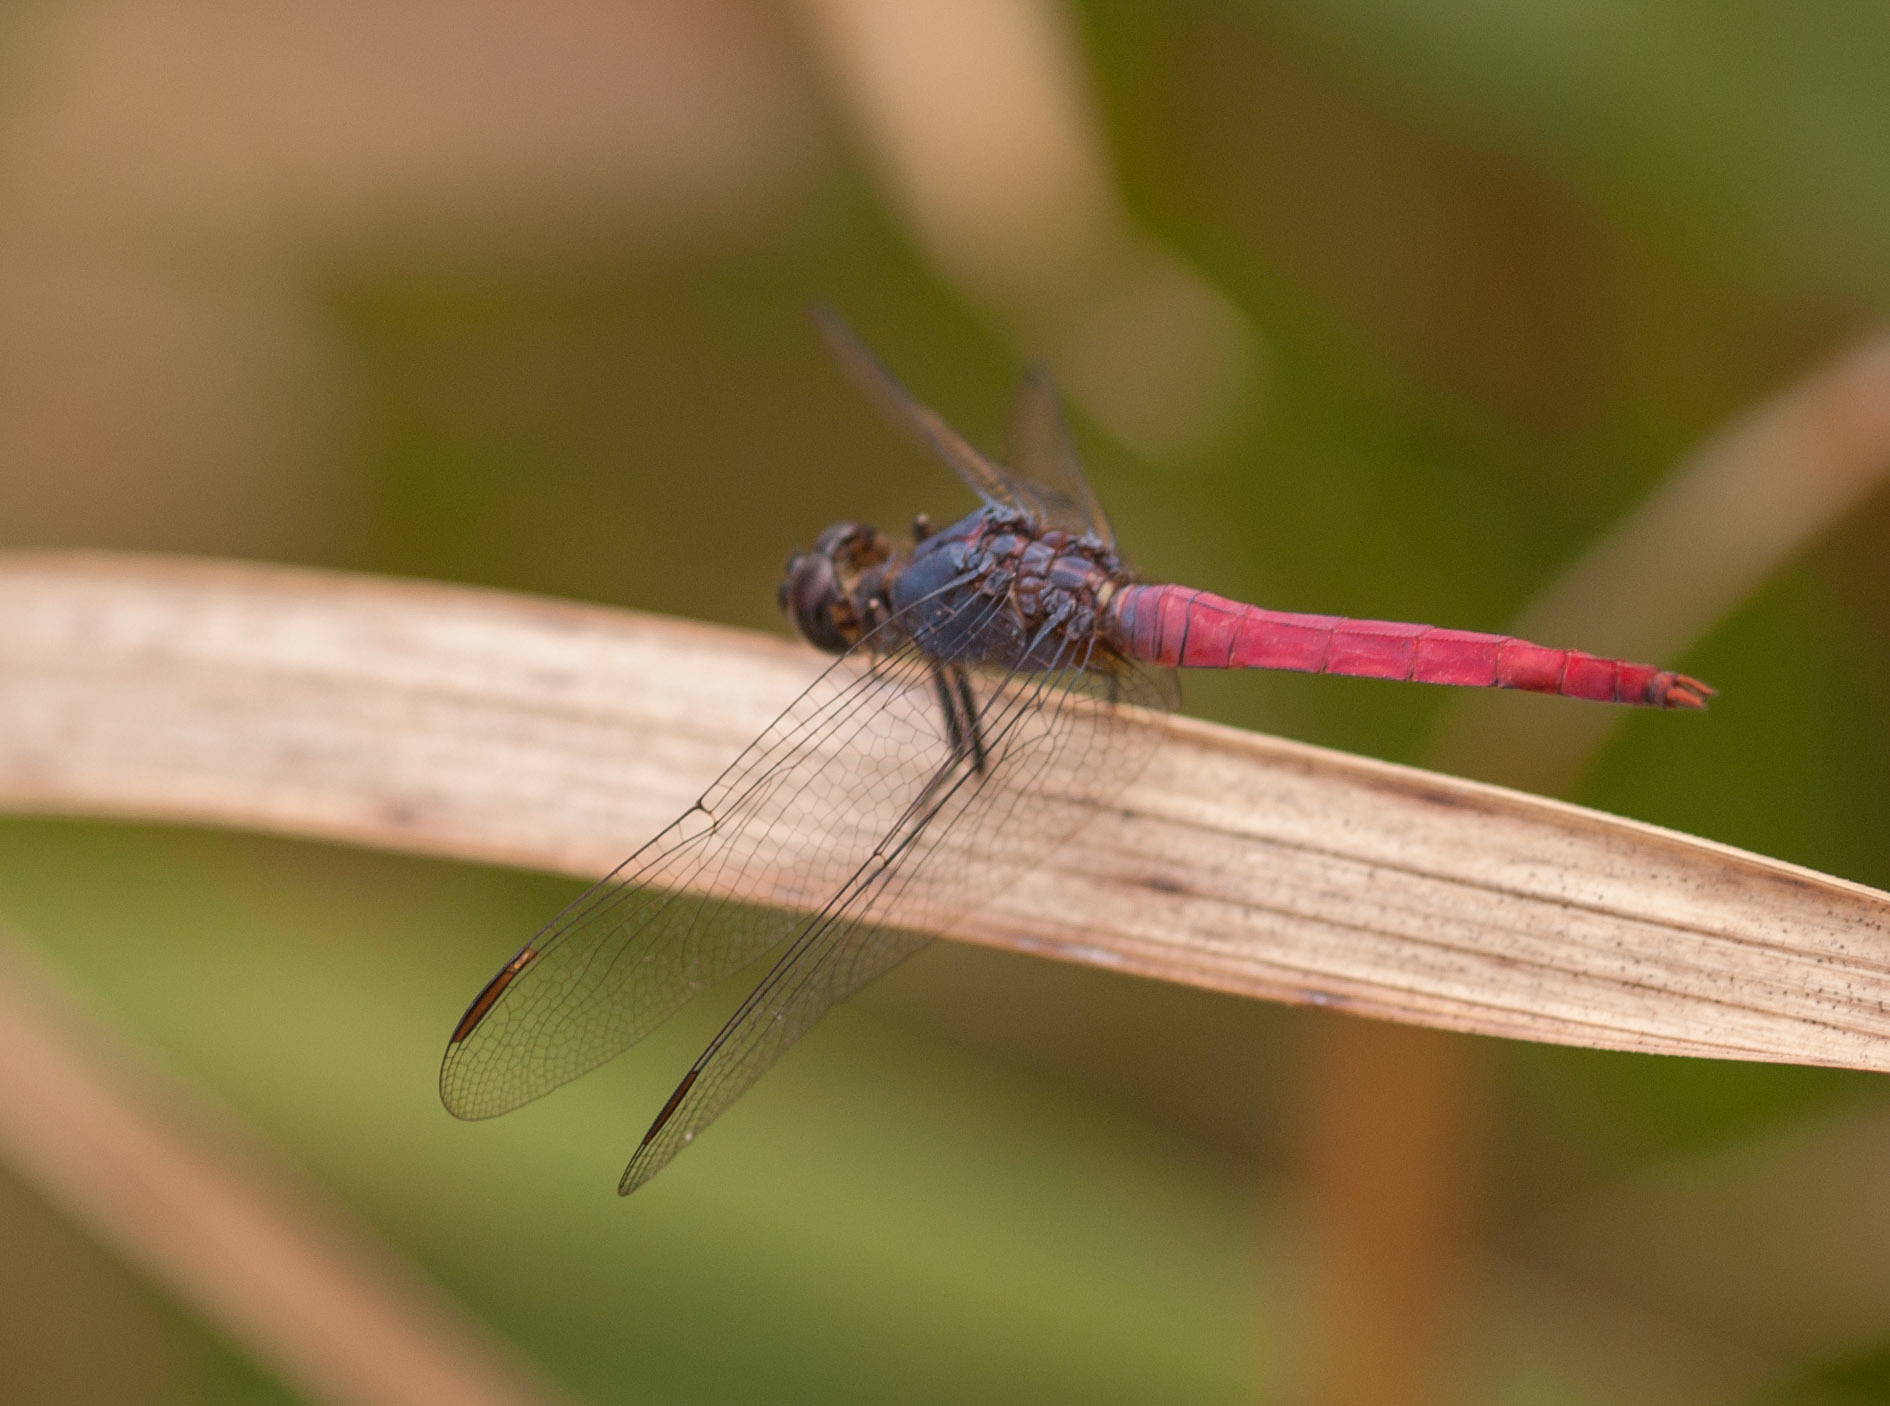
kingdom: Animalia
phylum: Arthropoda
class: Insecta
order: Odonata
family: Libellulidae
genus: Orthetrum
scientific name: Orthetrum migratum
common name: Rosy skimmer
